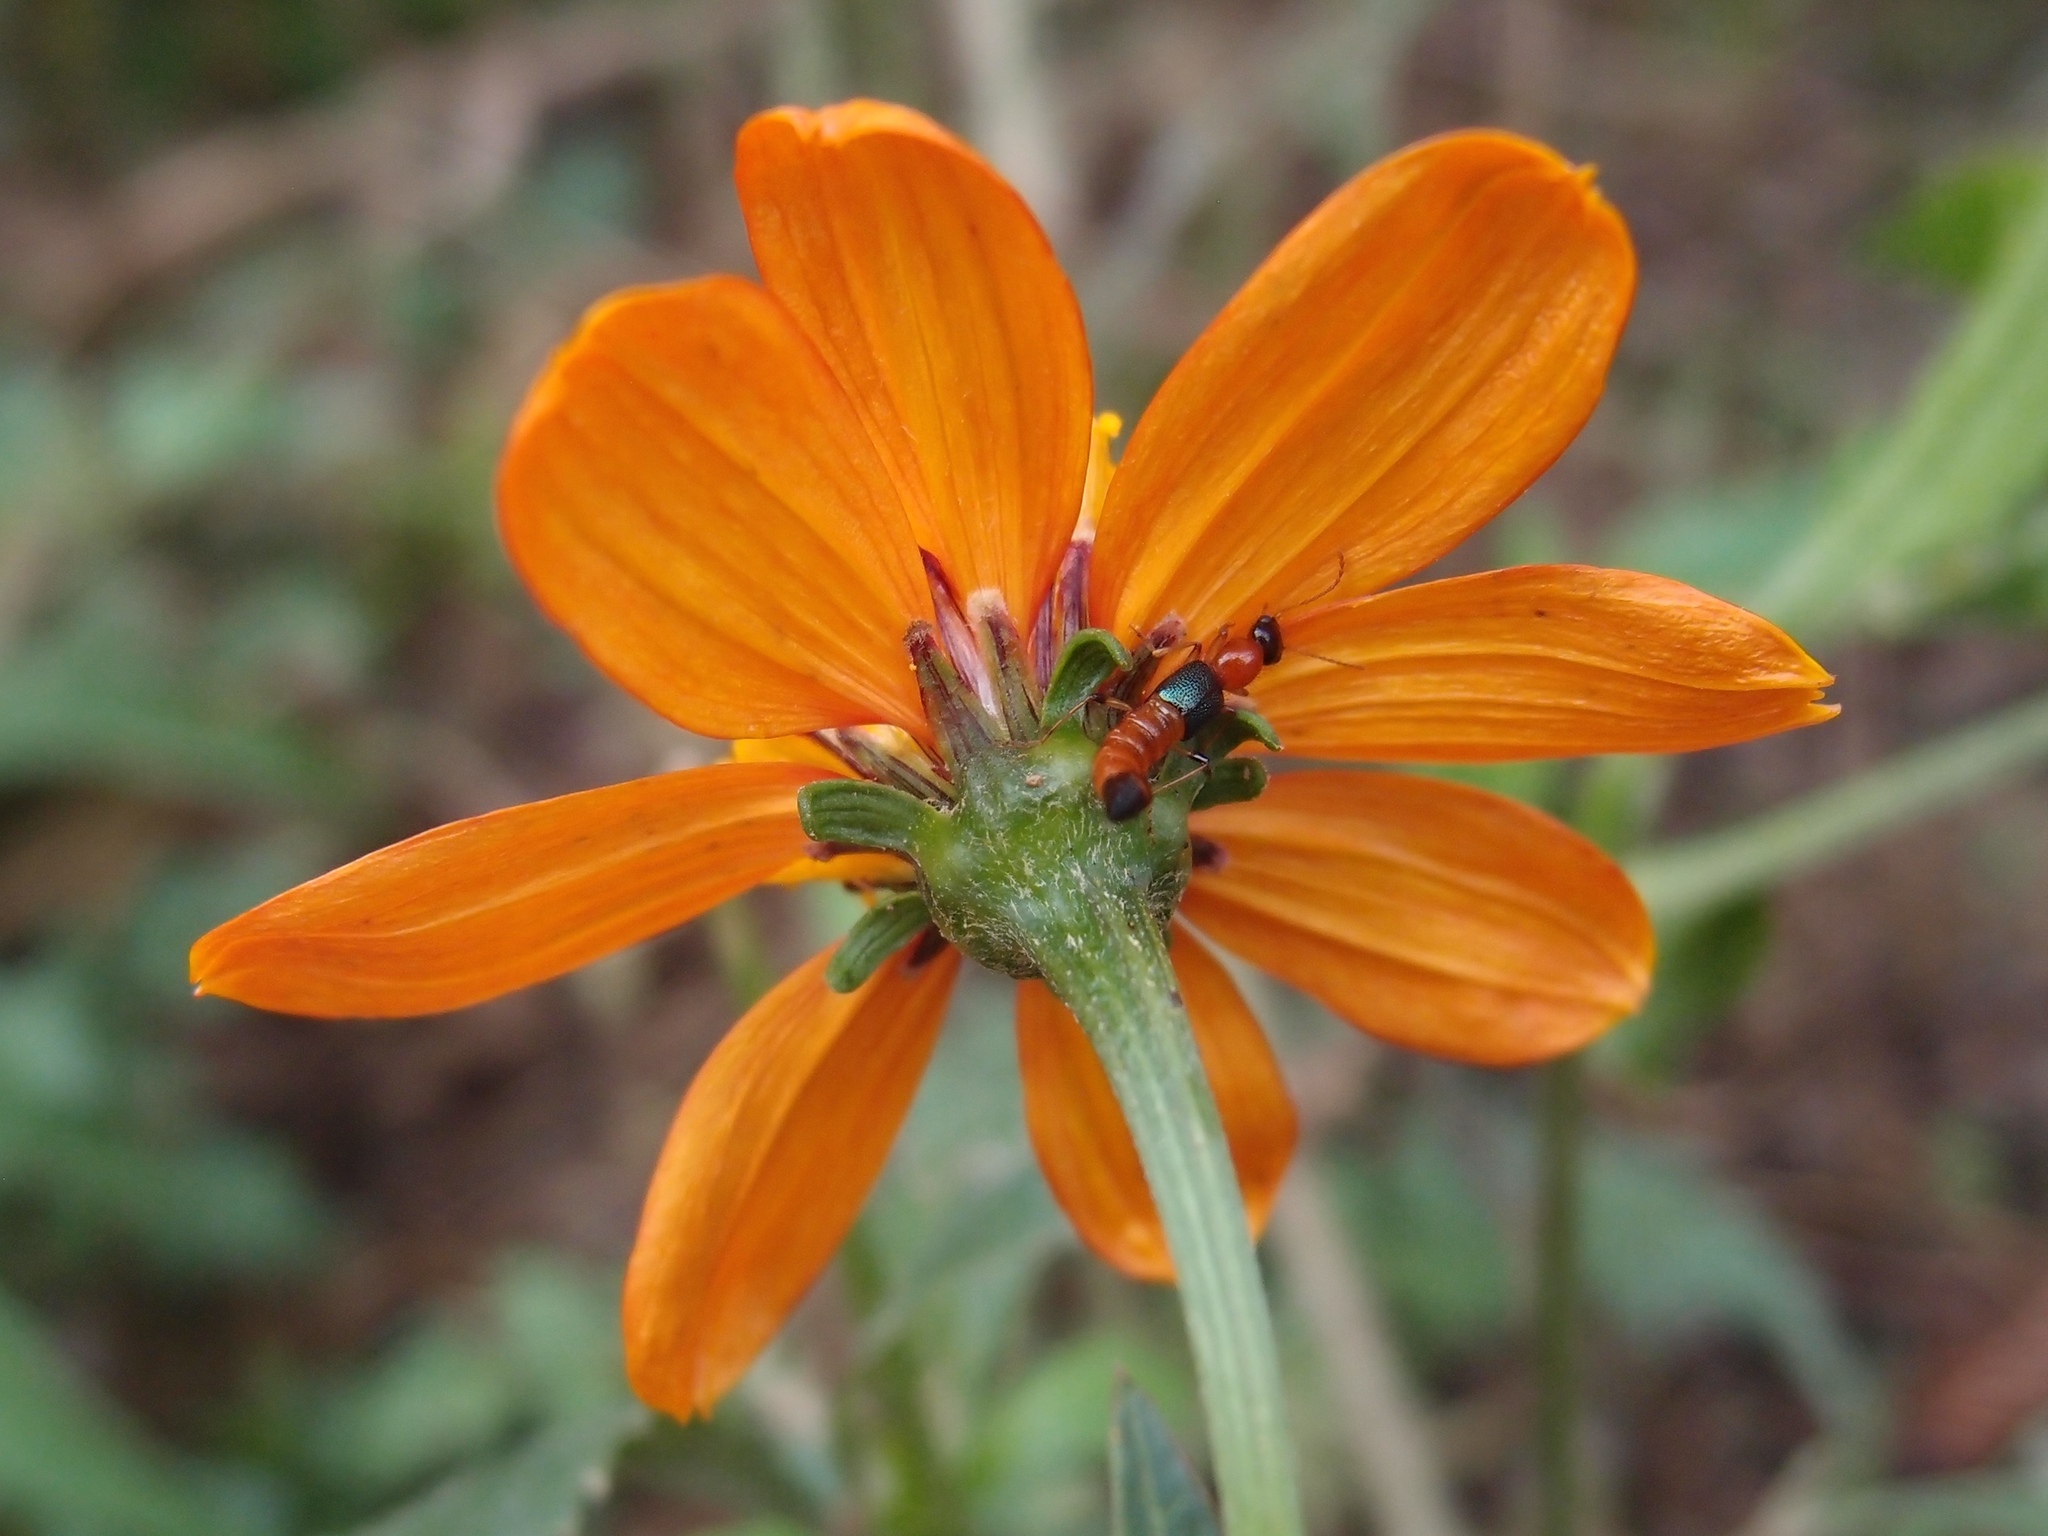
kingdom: Plantae
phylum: Tracheophyta
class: Magnoliopsida
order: Asterales
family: Asteraceae
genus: Bidens
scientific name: Bidens sambucifolia
